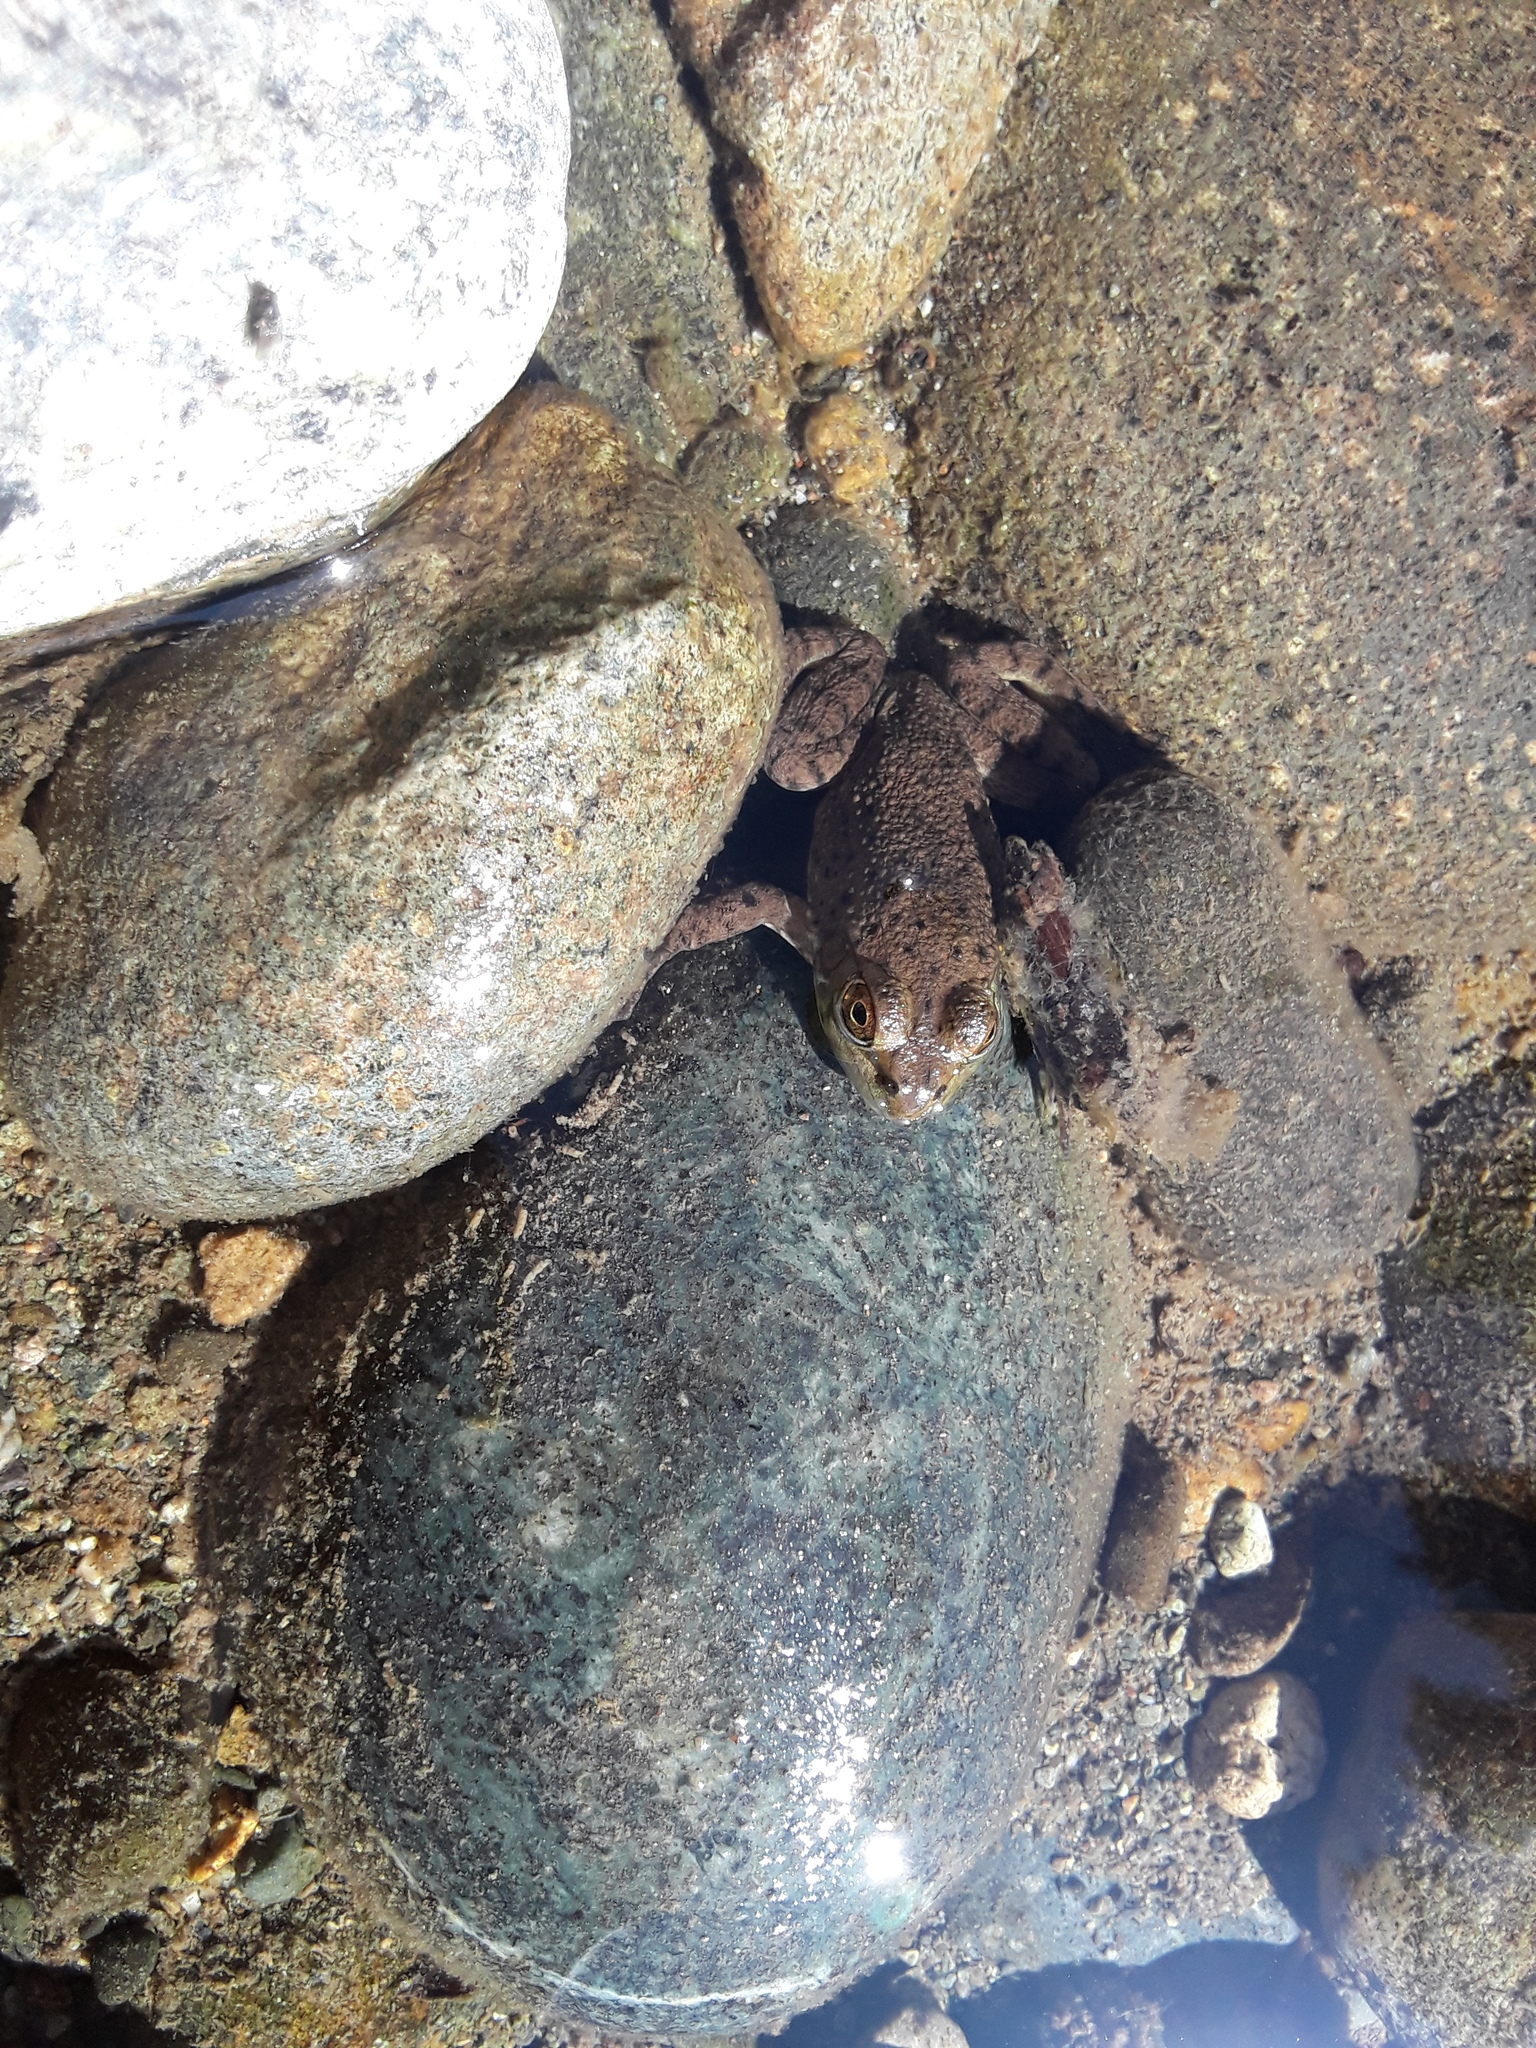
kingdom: Animalia
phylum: Chordata
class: Amphibia
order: Anura
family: Ranidae
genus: Lithobates
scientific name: Lithobates catesbeianus
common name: American bullfrog
